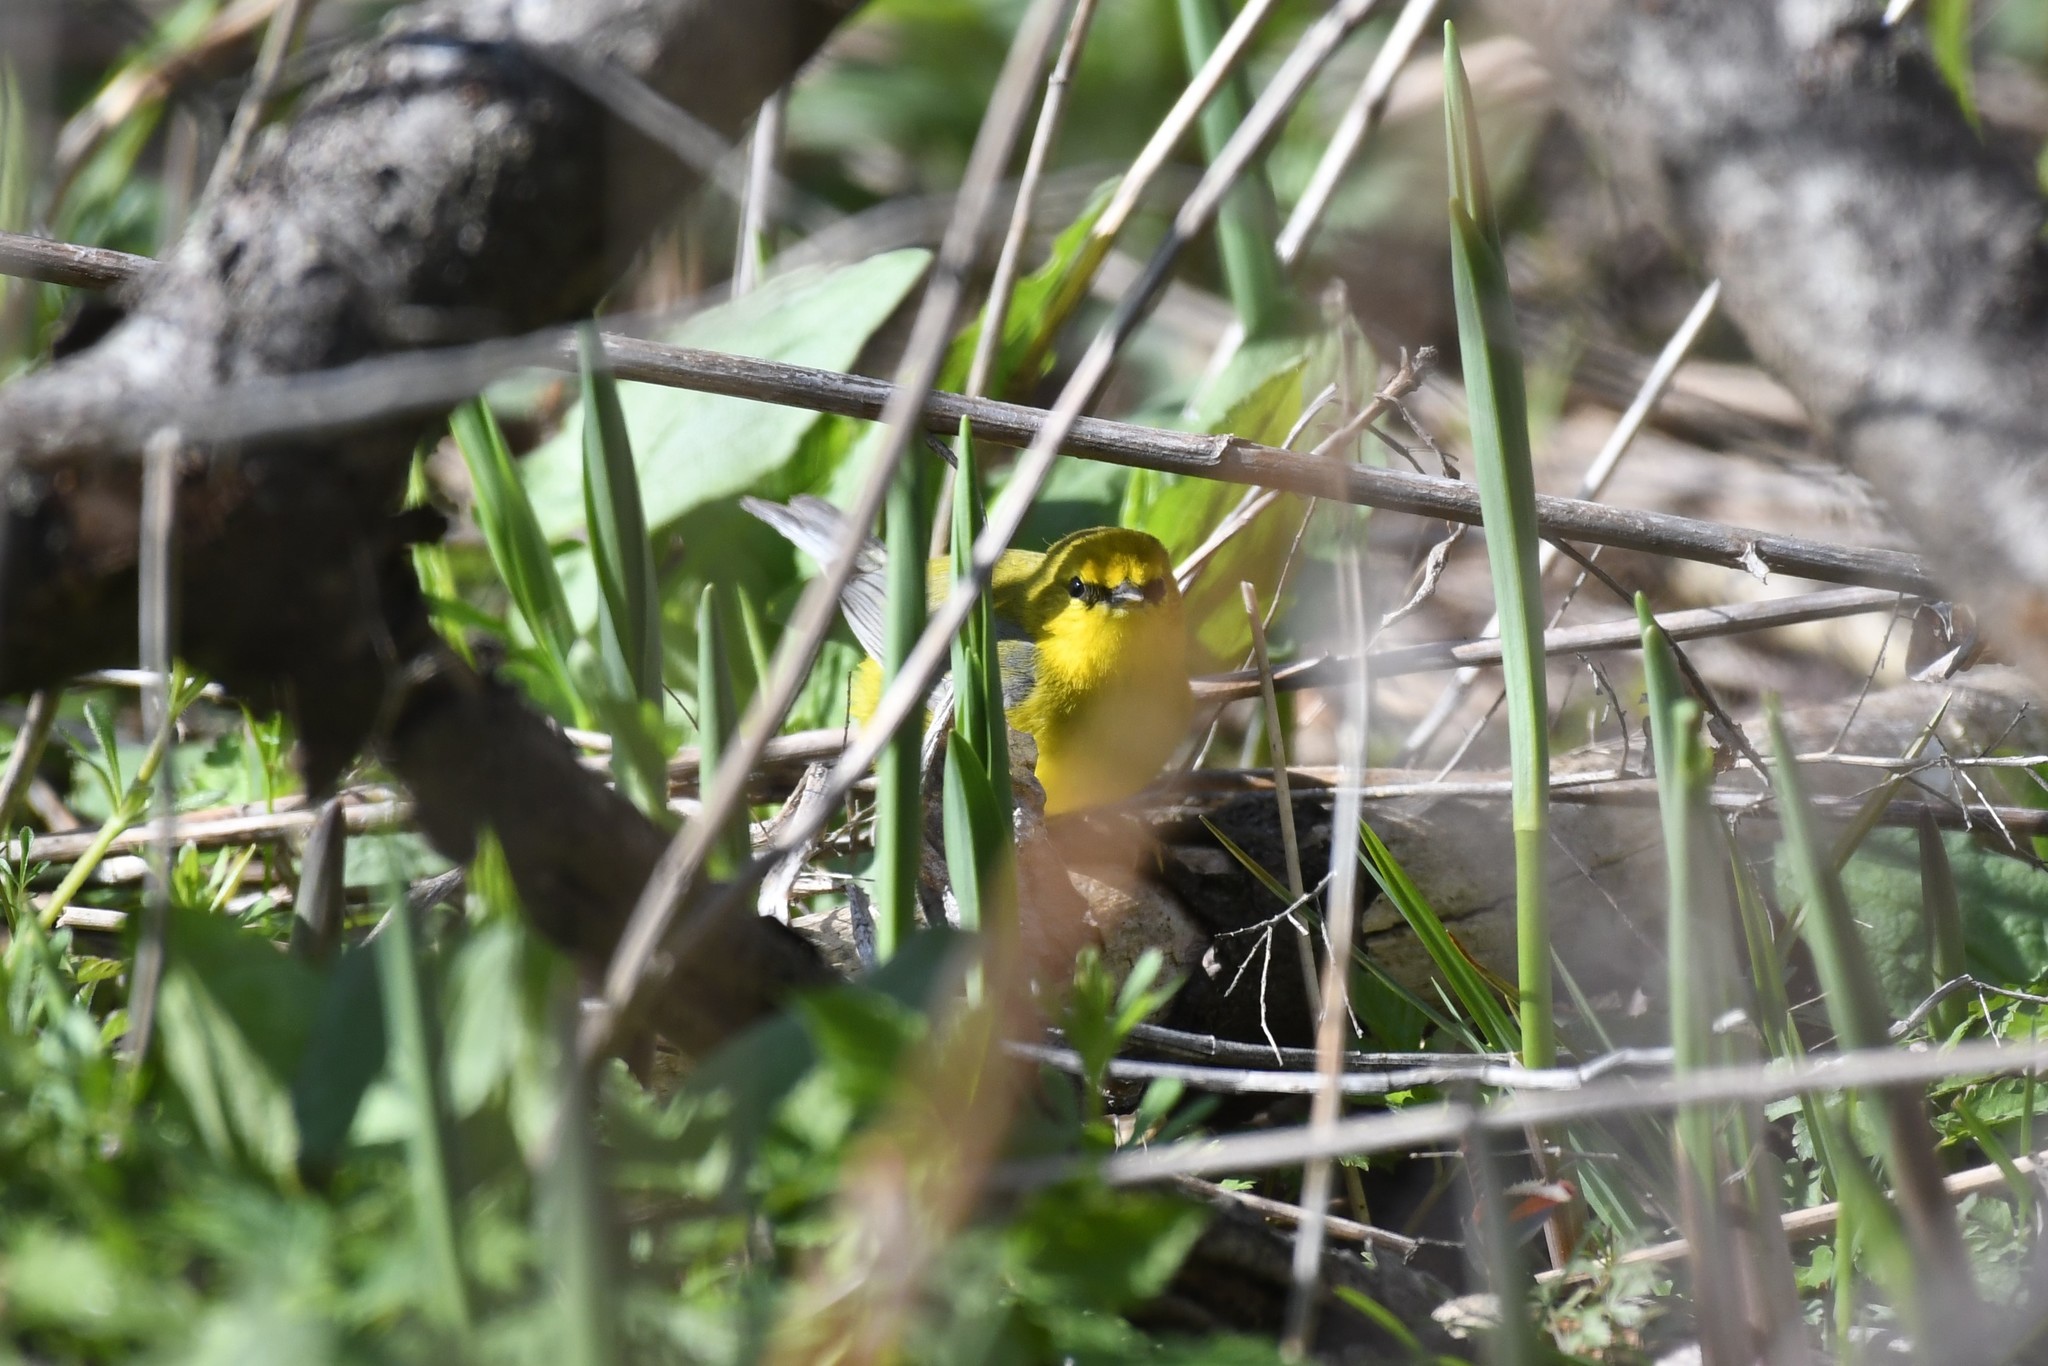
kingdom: Animalia
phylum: Chordata
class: Aves
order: Passeriformes
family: Parulidae
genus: Vermivora
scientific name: Vermivora cyanoptera
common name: Blue-winged warbler
